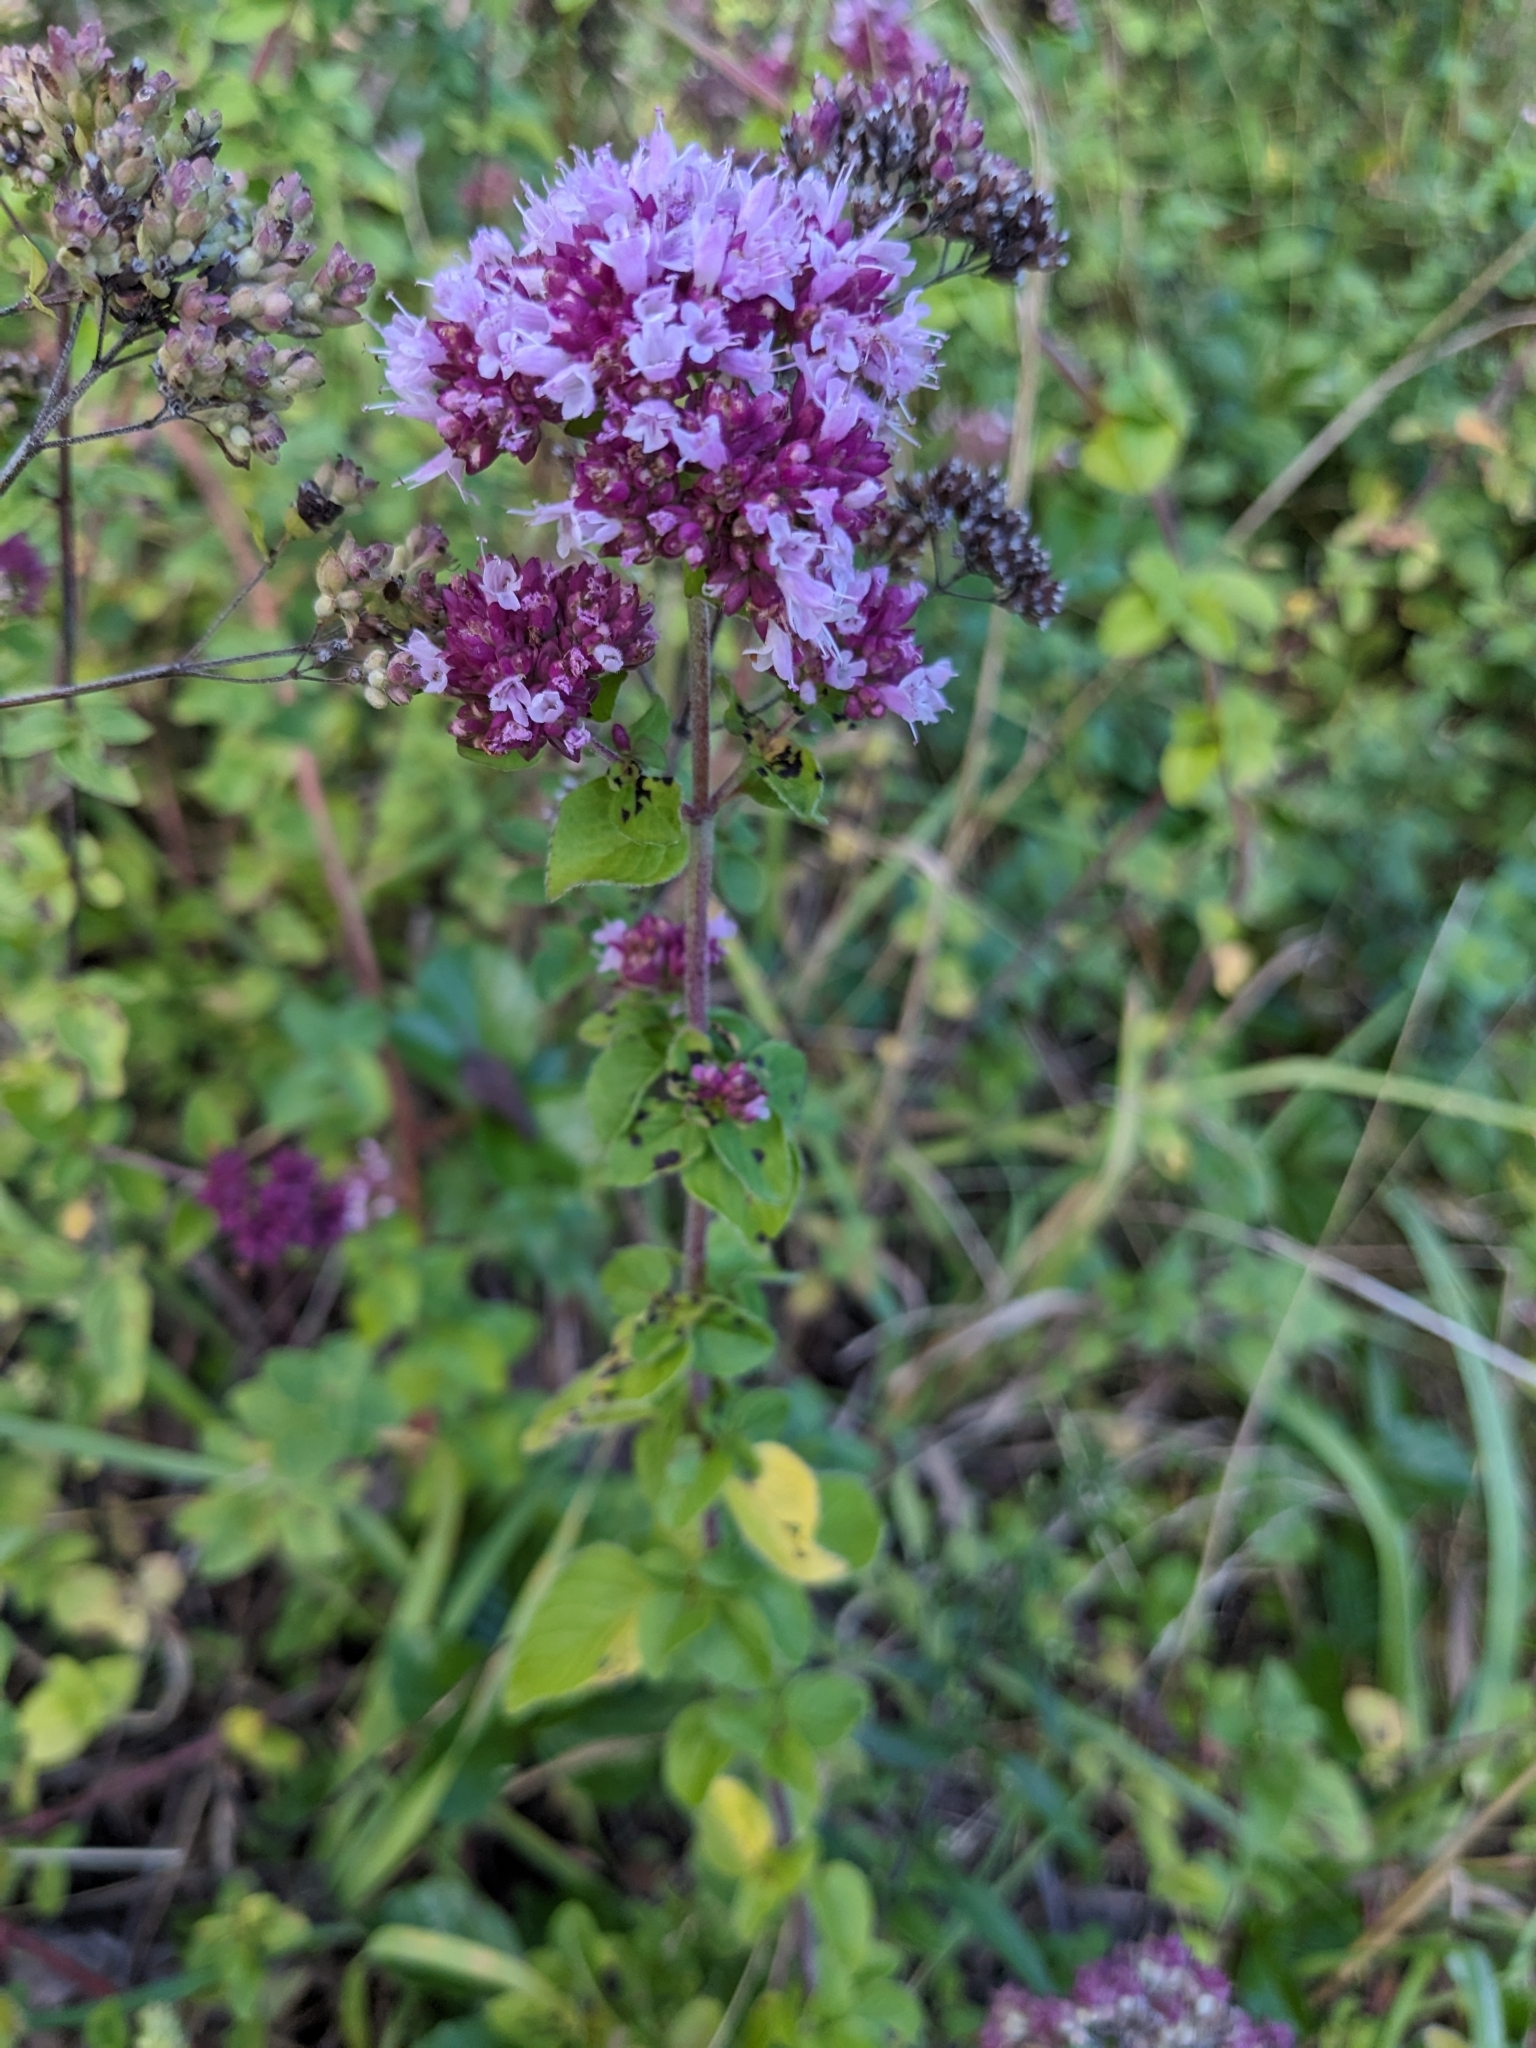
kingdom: Plantae
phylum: Tracheophyta
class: Magnoliopsida
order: Lamiales
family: Lamiaceae
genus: Origanum
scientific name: Origanum vulgare
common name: Wild marjoram
